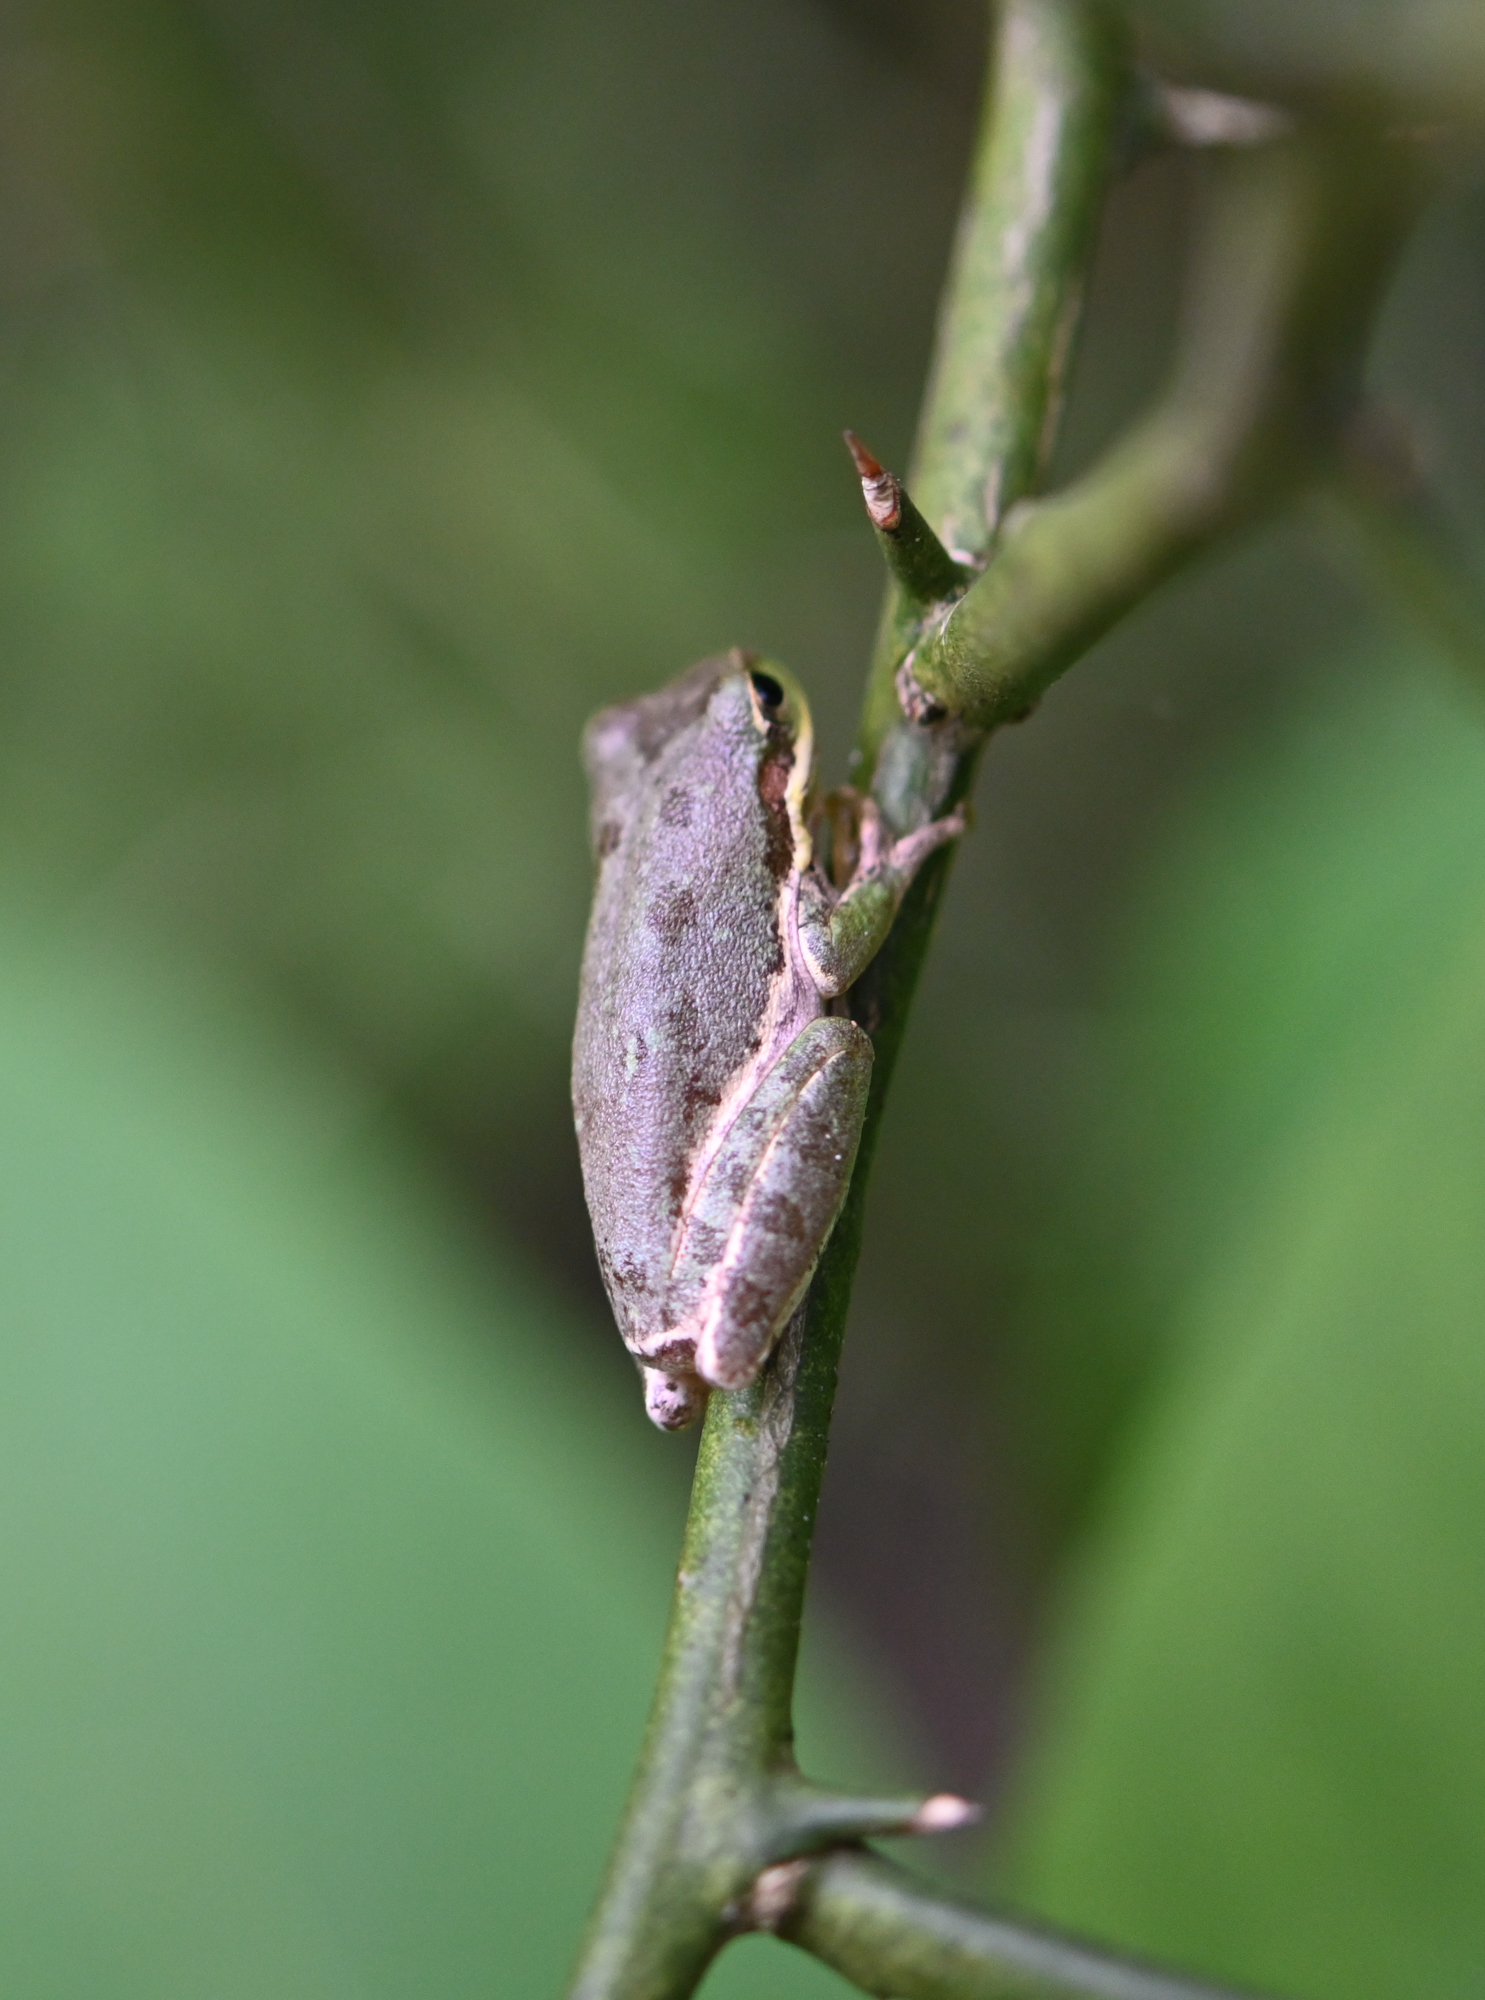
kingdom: Animalia
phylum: Chordata
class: Amphibia
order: Anura
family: Hylidae
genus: Dryophytes
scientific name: Dryophytes squirellus
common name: Squirrel treefrog
